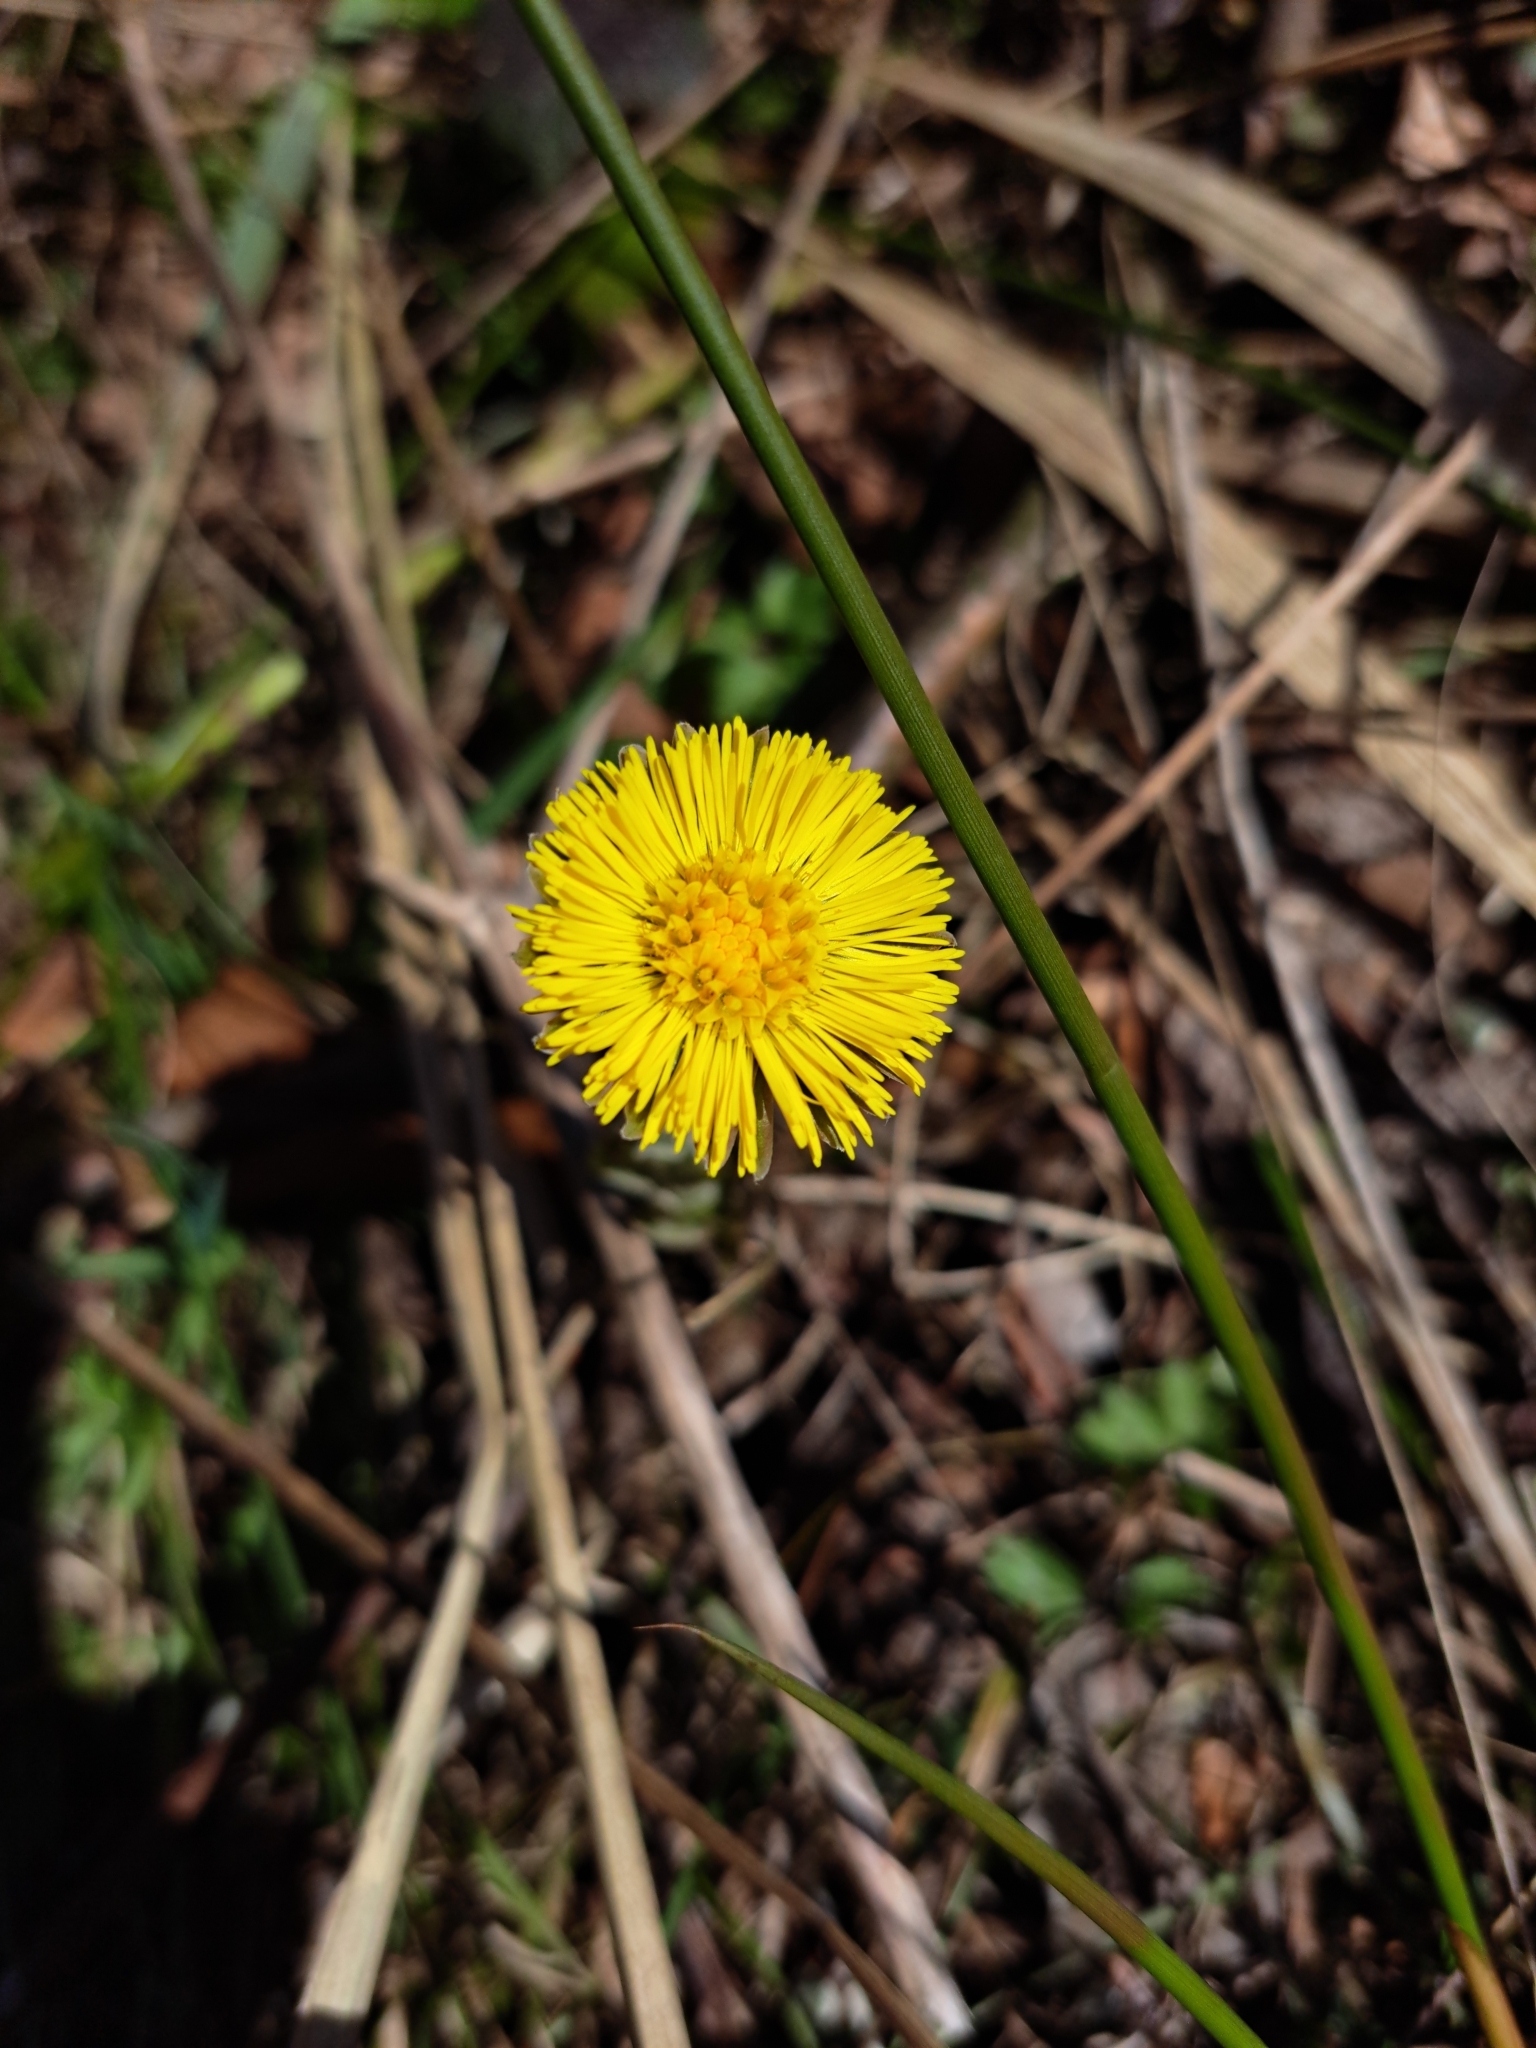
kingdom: Plantae
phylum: Tracheophyta
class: Magnoliopsida
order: Asterales
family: Asteraceae
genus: Tussilago
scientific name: Tussilago farfara
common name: Coltsfoot
